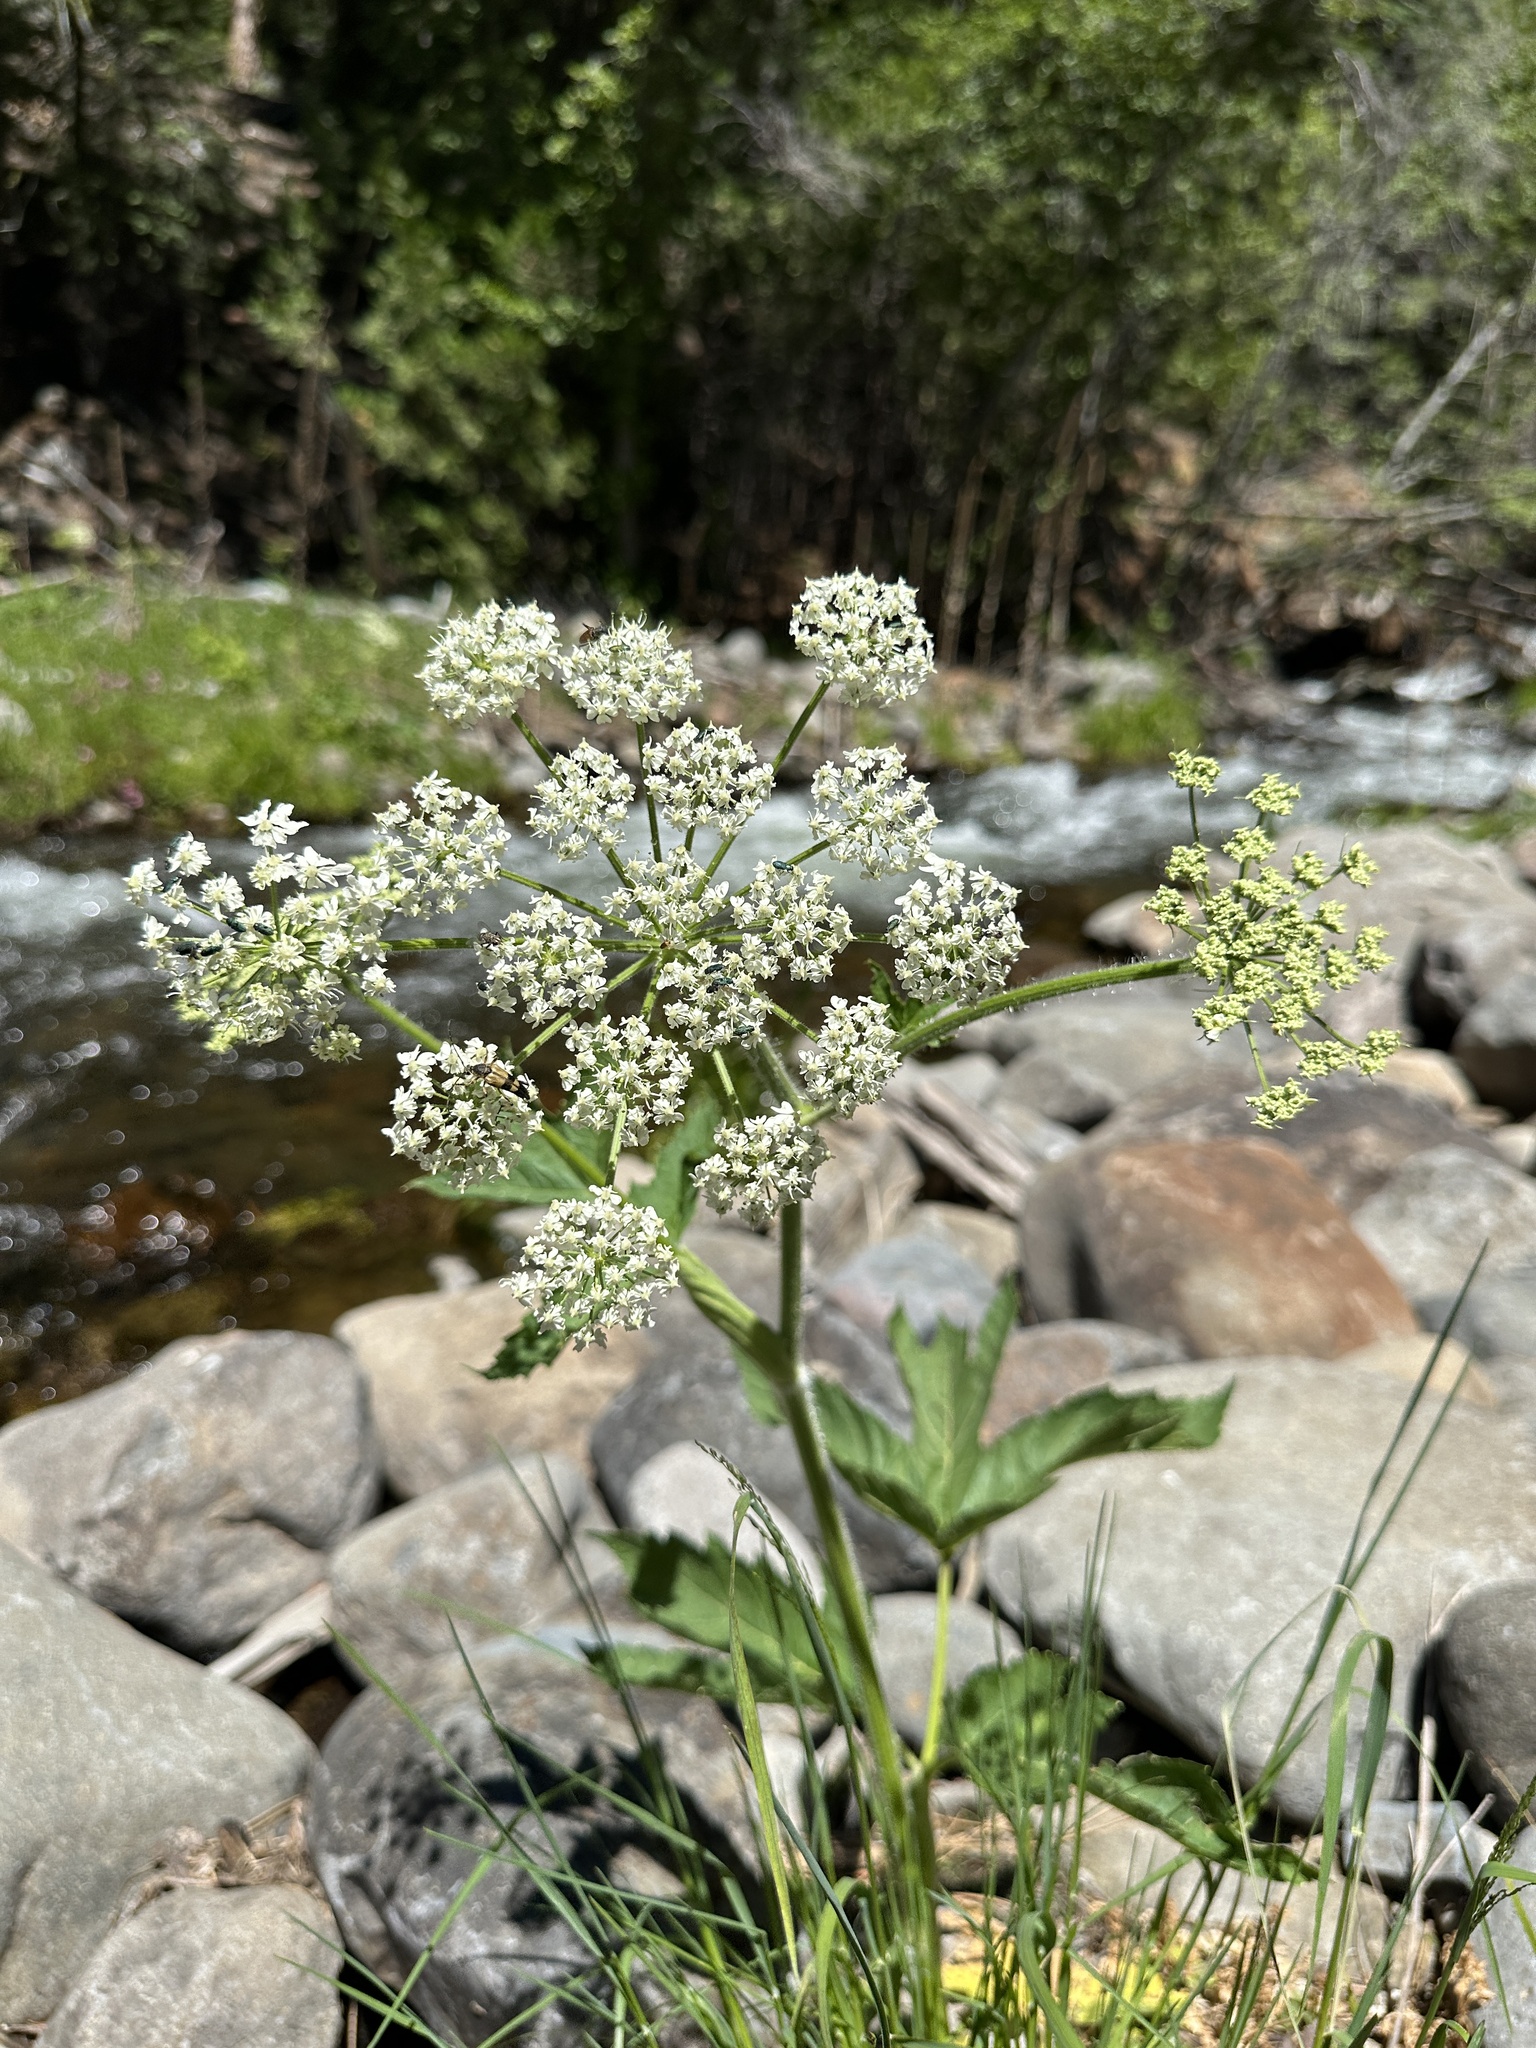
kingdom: Plantae
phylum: Tracheophyta
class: Magnoliopsida
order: Apiales
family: Apiaceae
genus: Heracleum
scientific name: Heracleum maximum
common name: American cow parsnip
